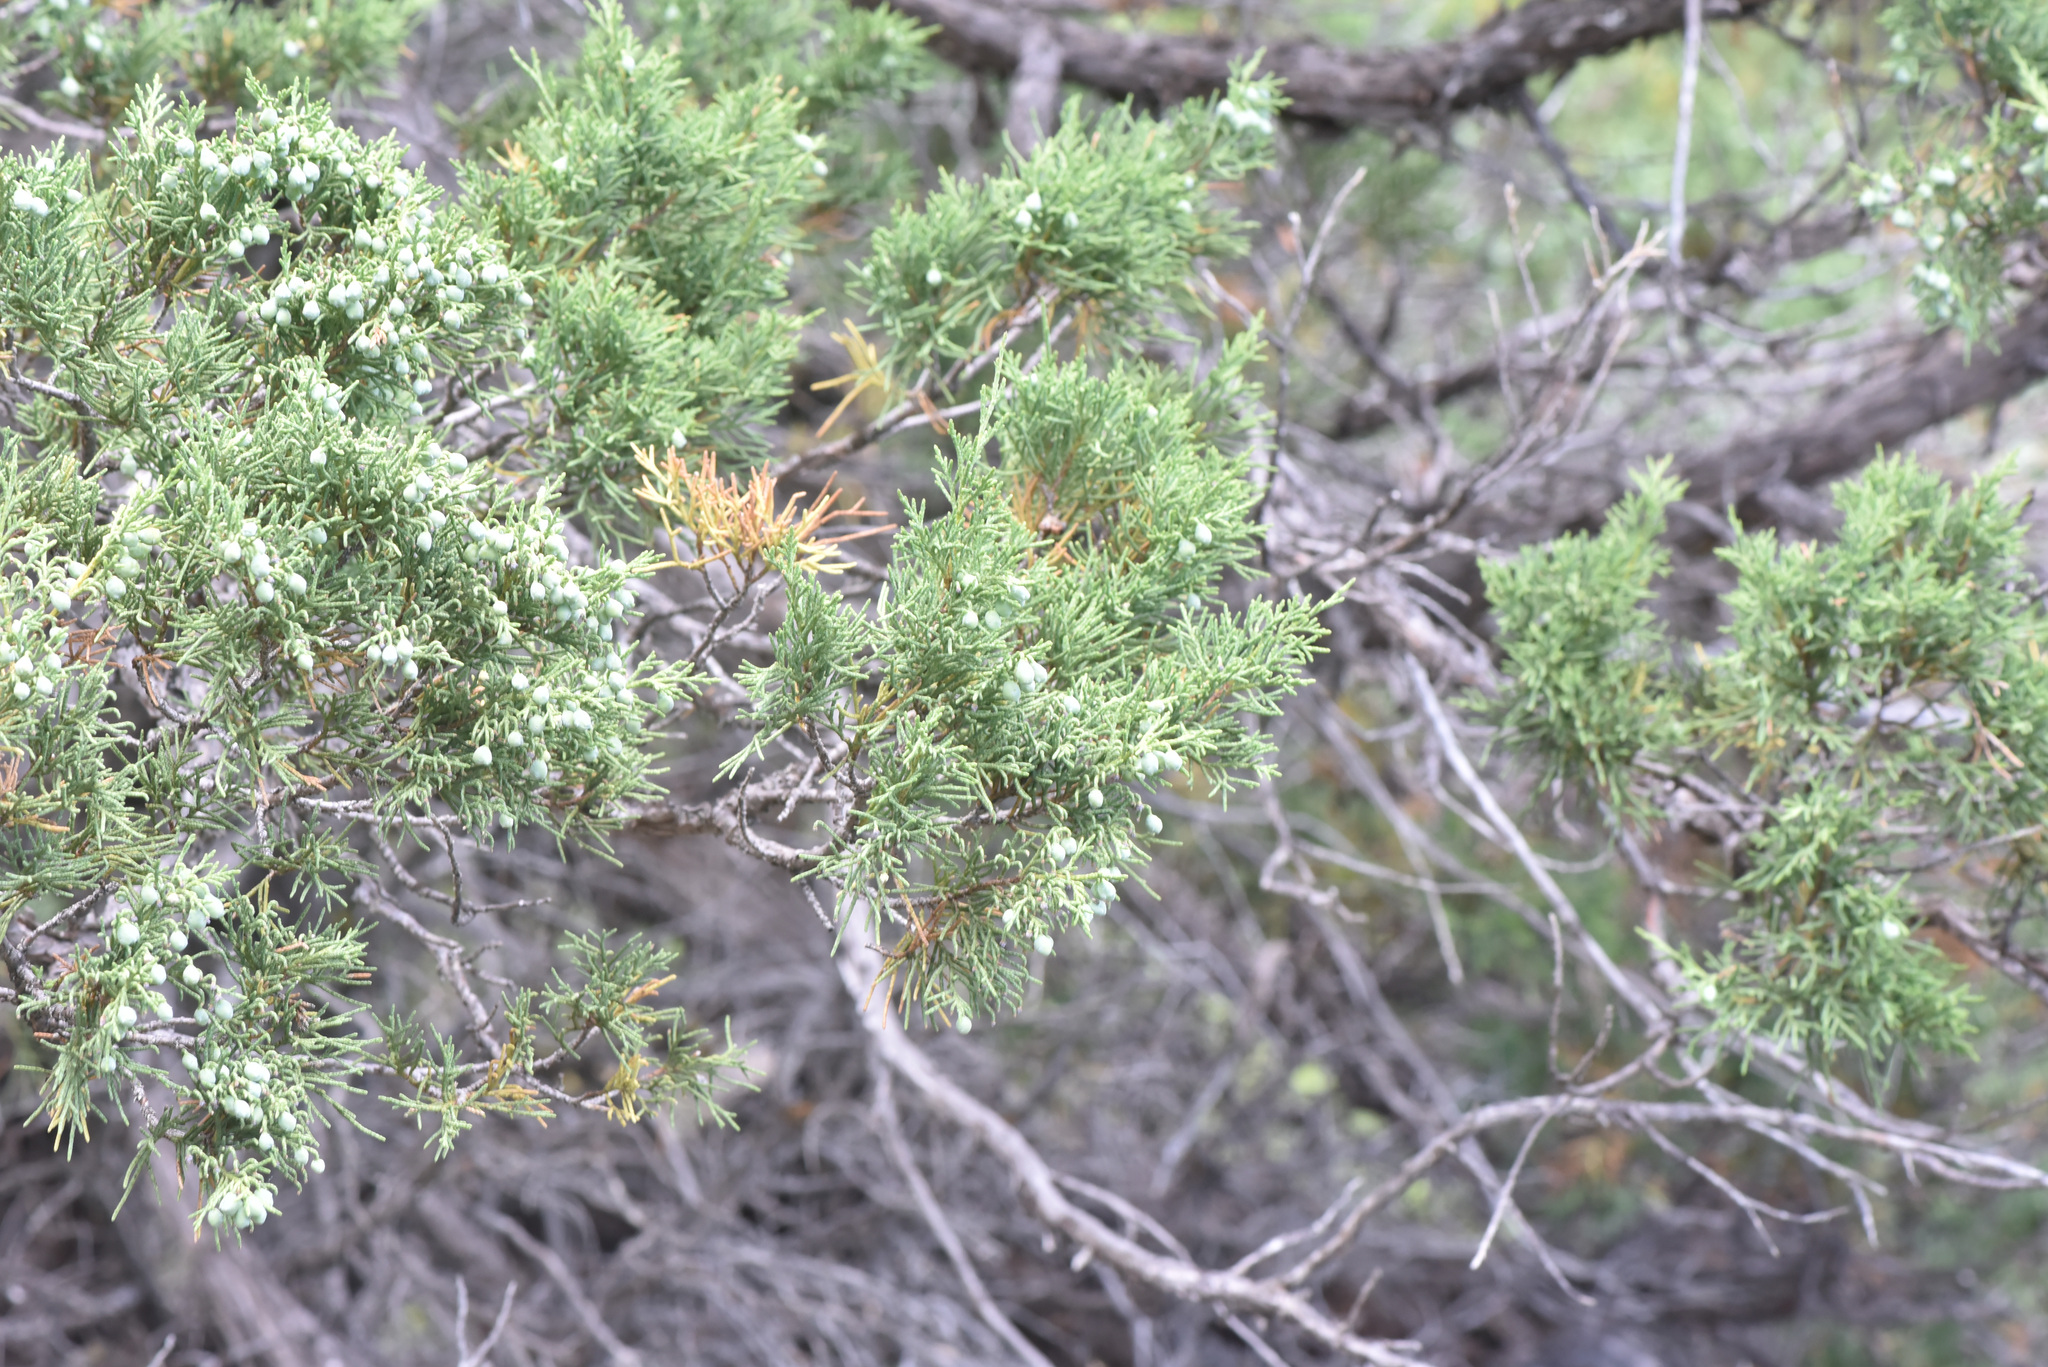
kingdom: Plantae
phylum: Tracheophyta
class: Pinopsida
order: Pinales
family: Cupressaceae
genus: Juniperus
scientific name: Juniperus scopulorum
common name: Rocky mountain juniper
